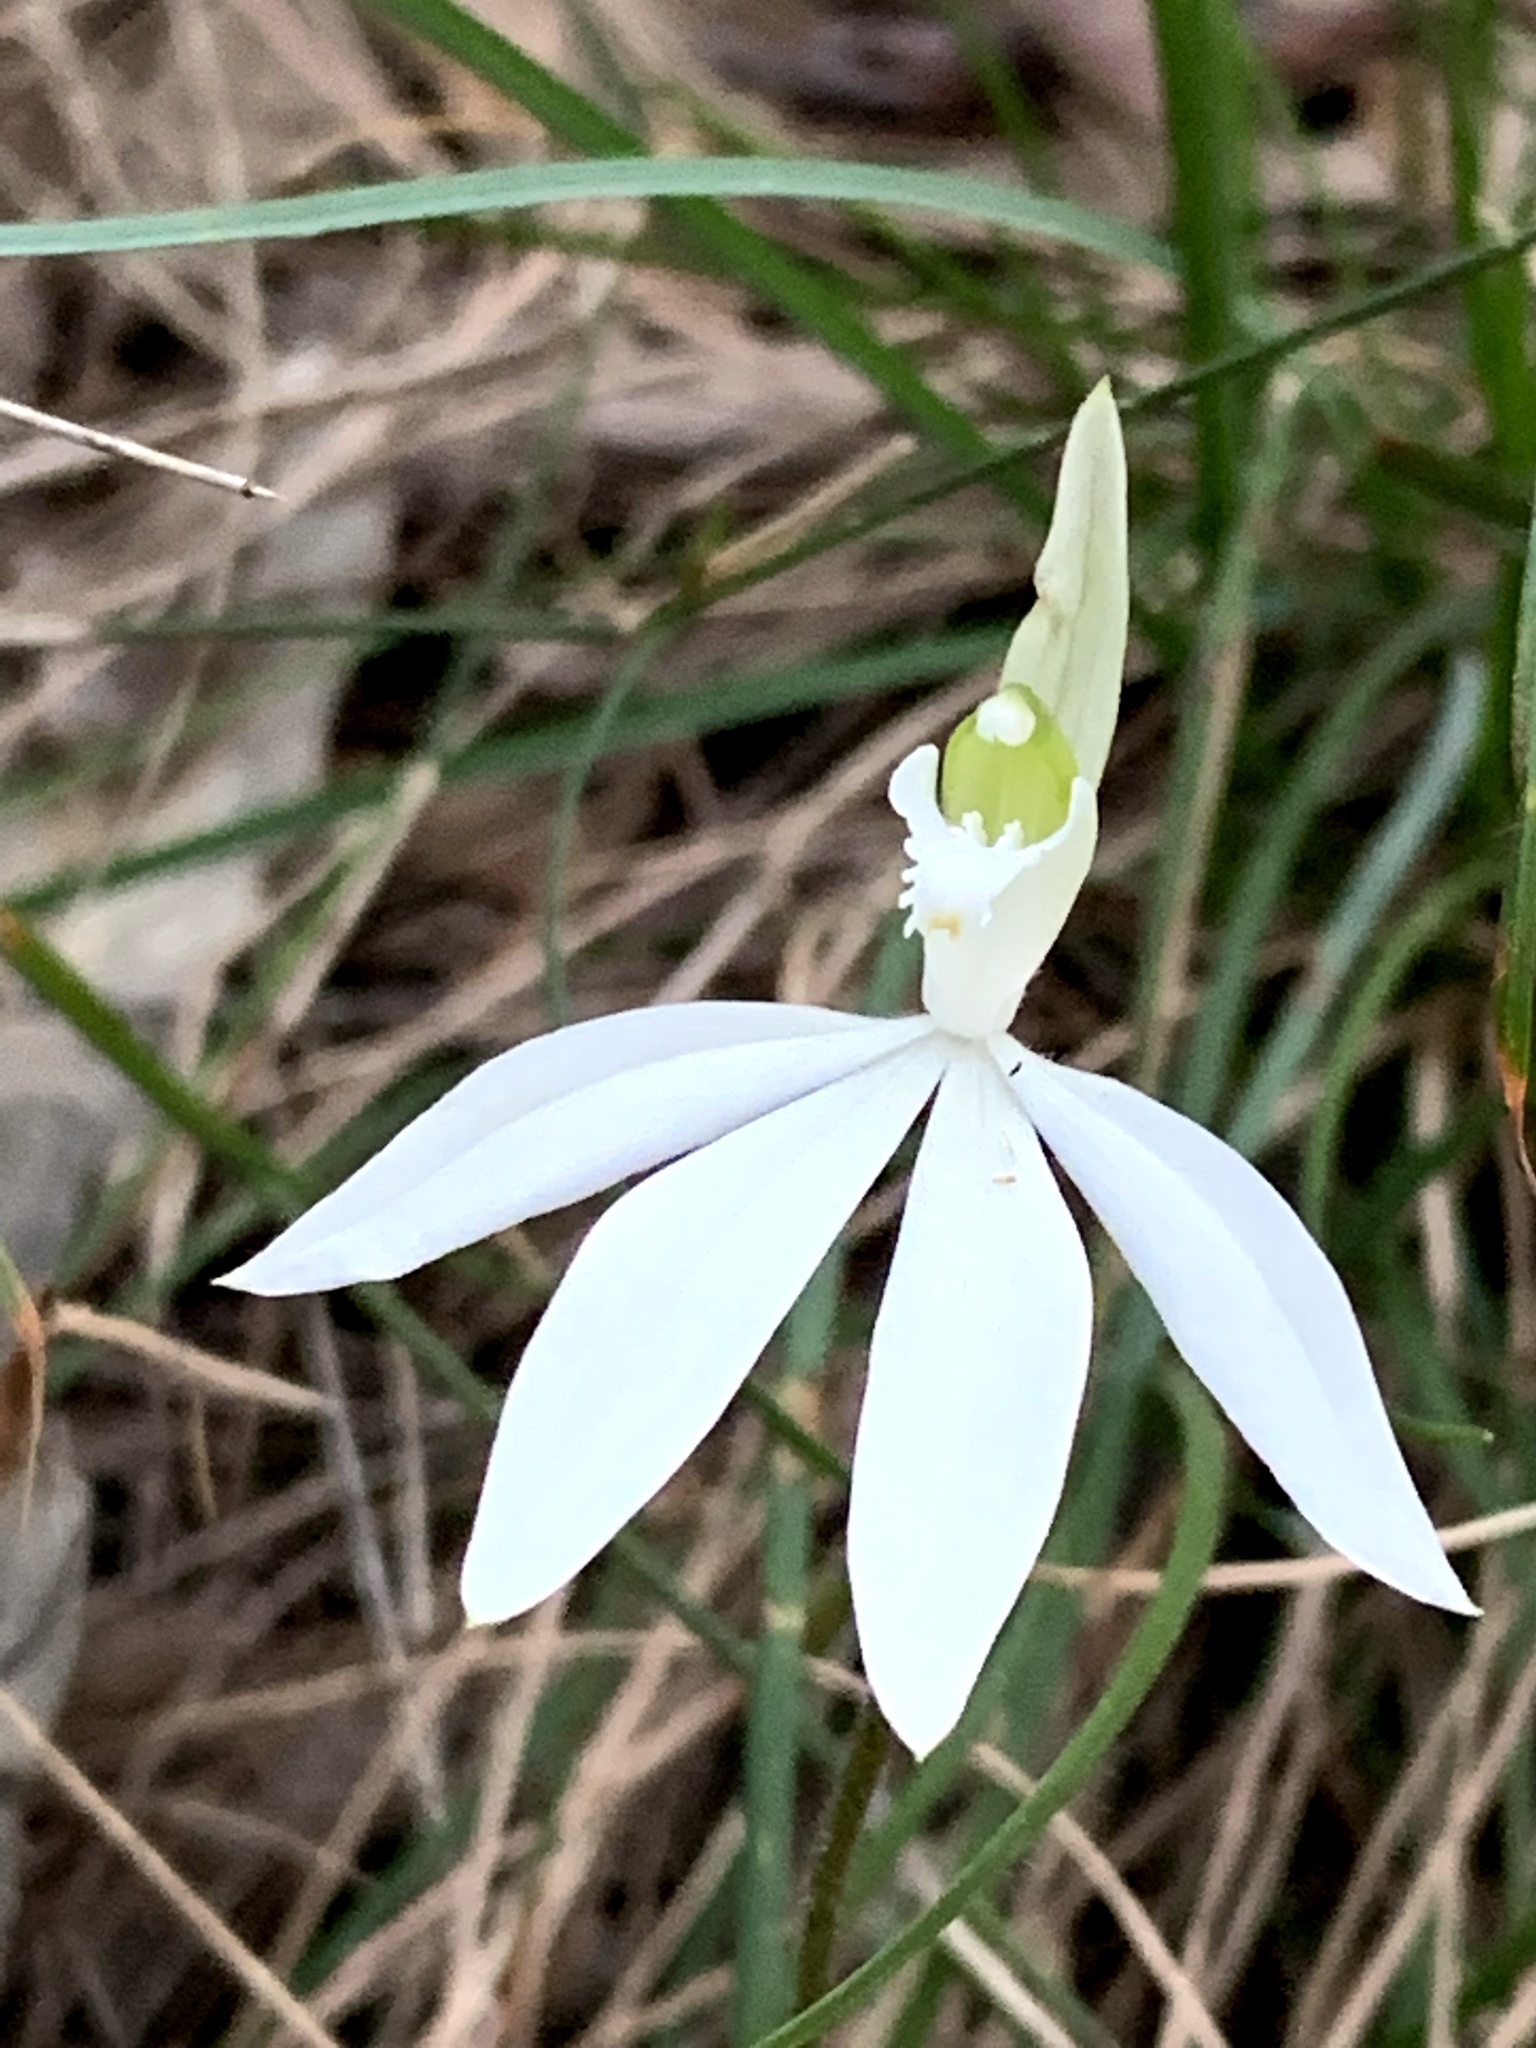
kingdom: Plantae
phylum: Tracheophyta
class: Liliopsida
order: Asparagales
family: Orchidaceae
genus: Caladenia
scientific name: Caladenia catenata
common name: White caladenia
